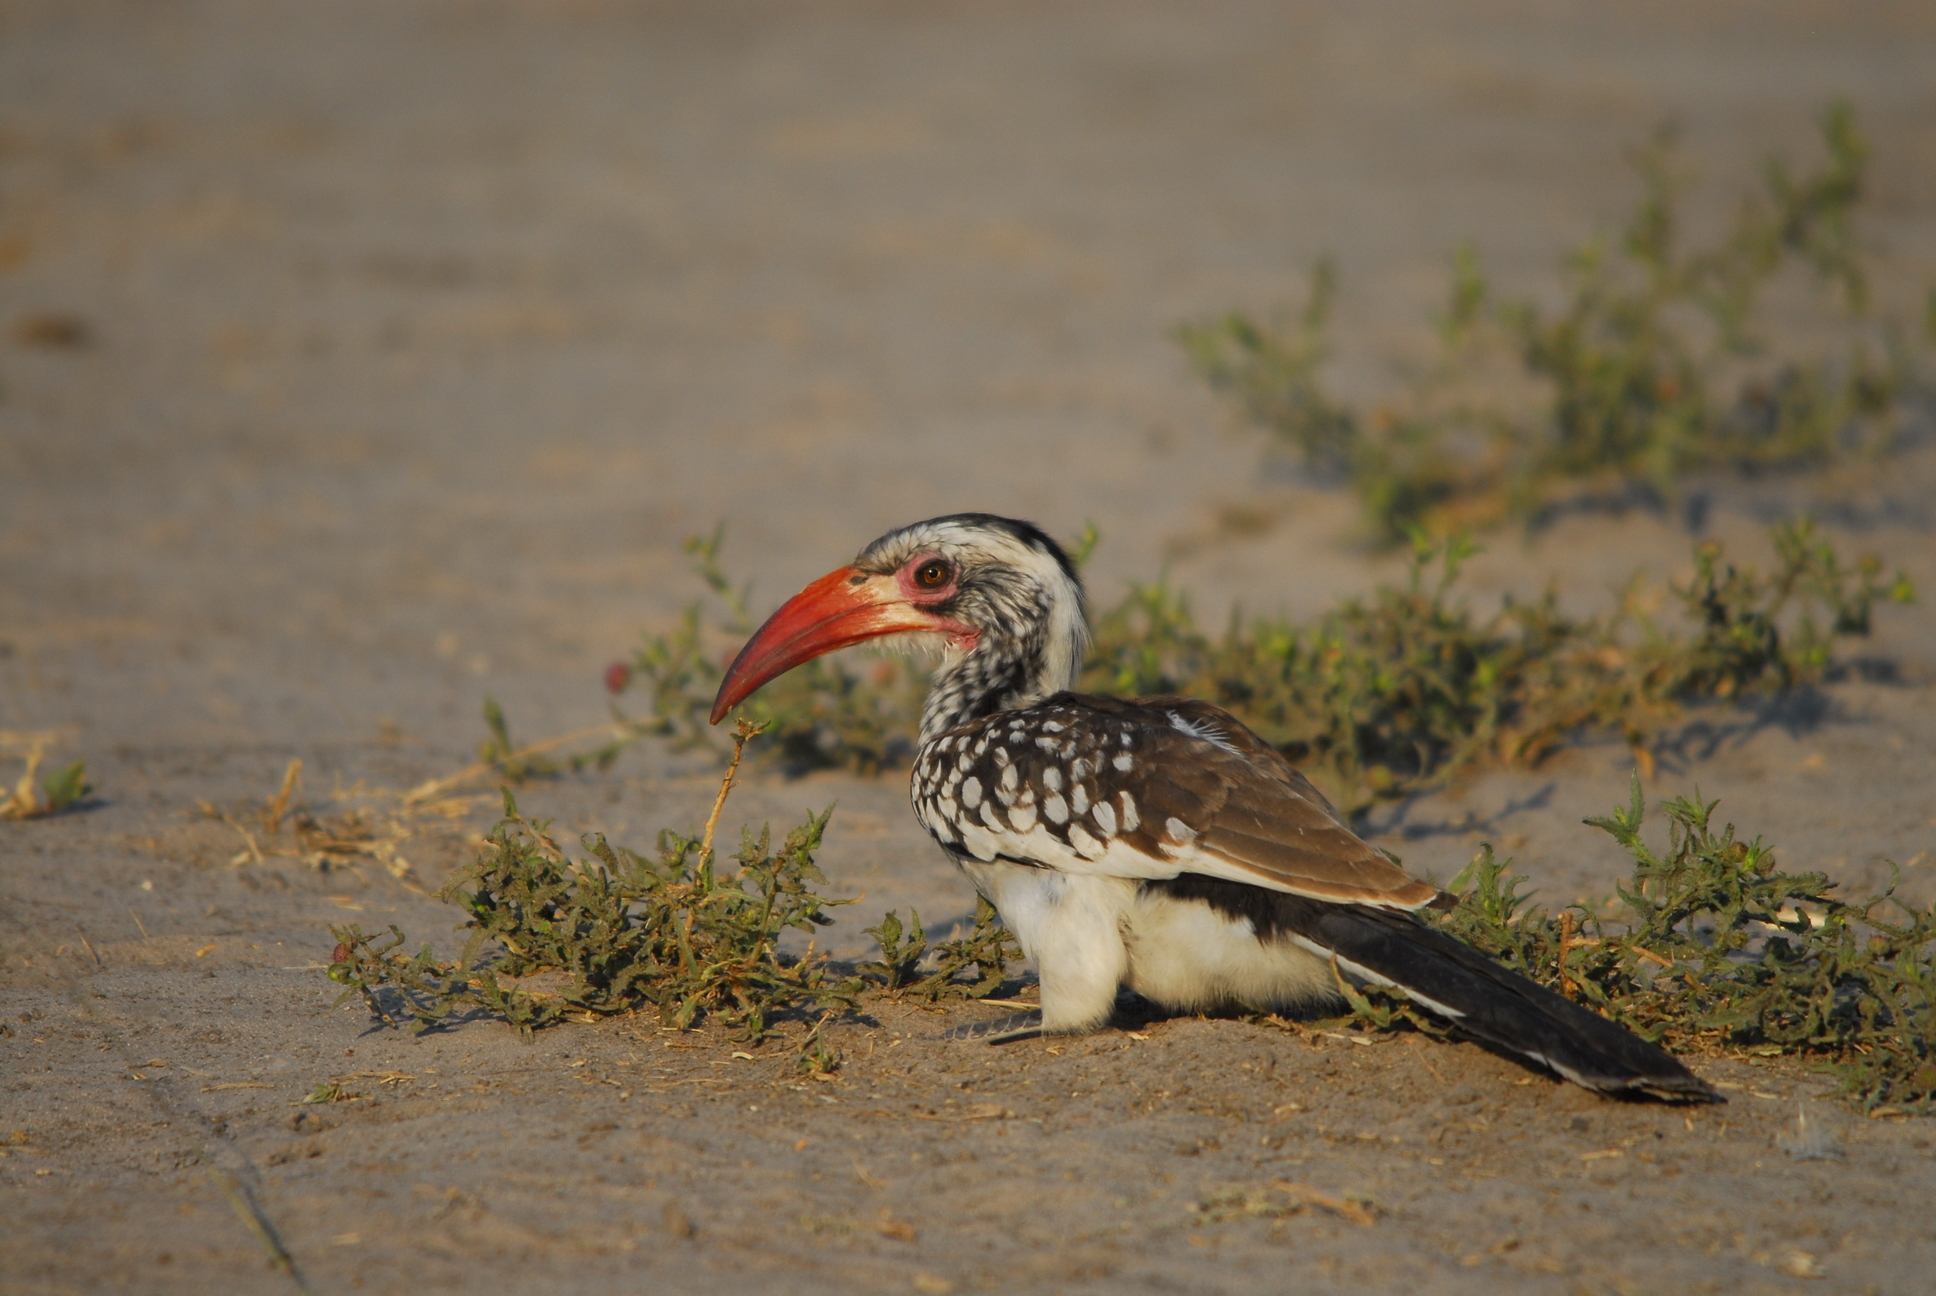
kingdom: Animalia
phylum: Chordata
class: Aves
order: Bucerotiformes
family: Bucerotidae
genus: Tockus
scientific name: Tockus rufirostris
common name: Southern red-billed hornbill
